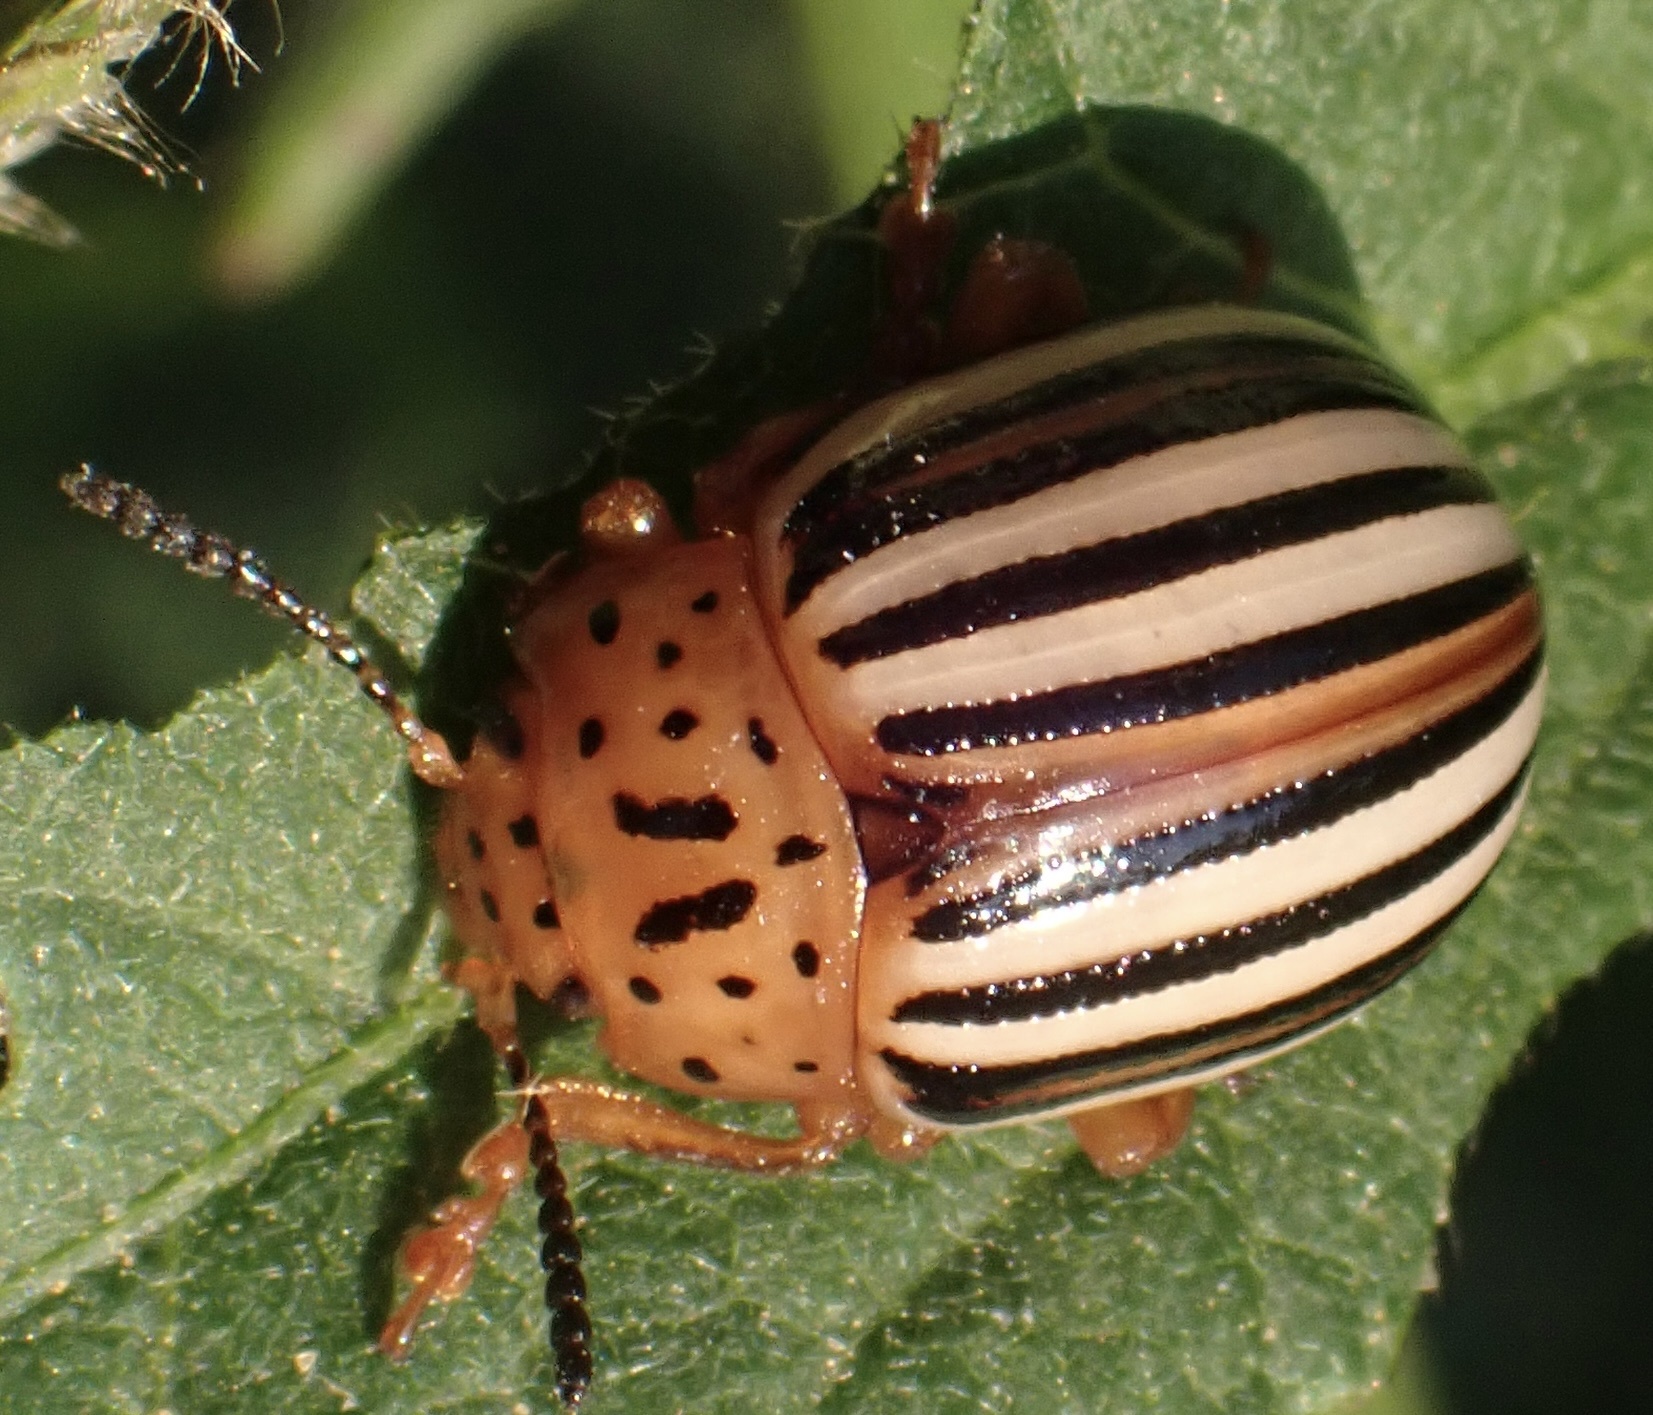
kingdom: Animalia
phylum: Arthropoda
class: Insecta
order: Coleoptera
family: Chrysomelidae
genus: Leptinotarsa
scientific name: Leptinotarsa juncta
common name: False potato beetle
